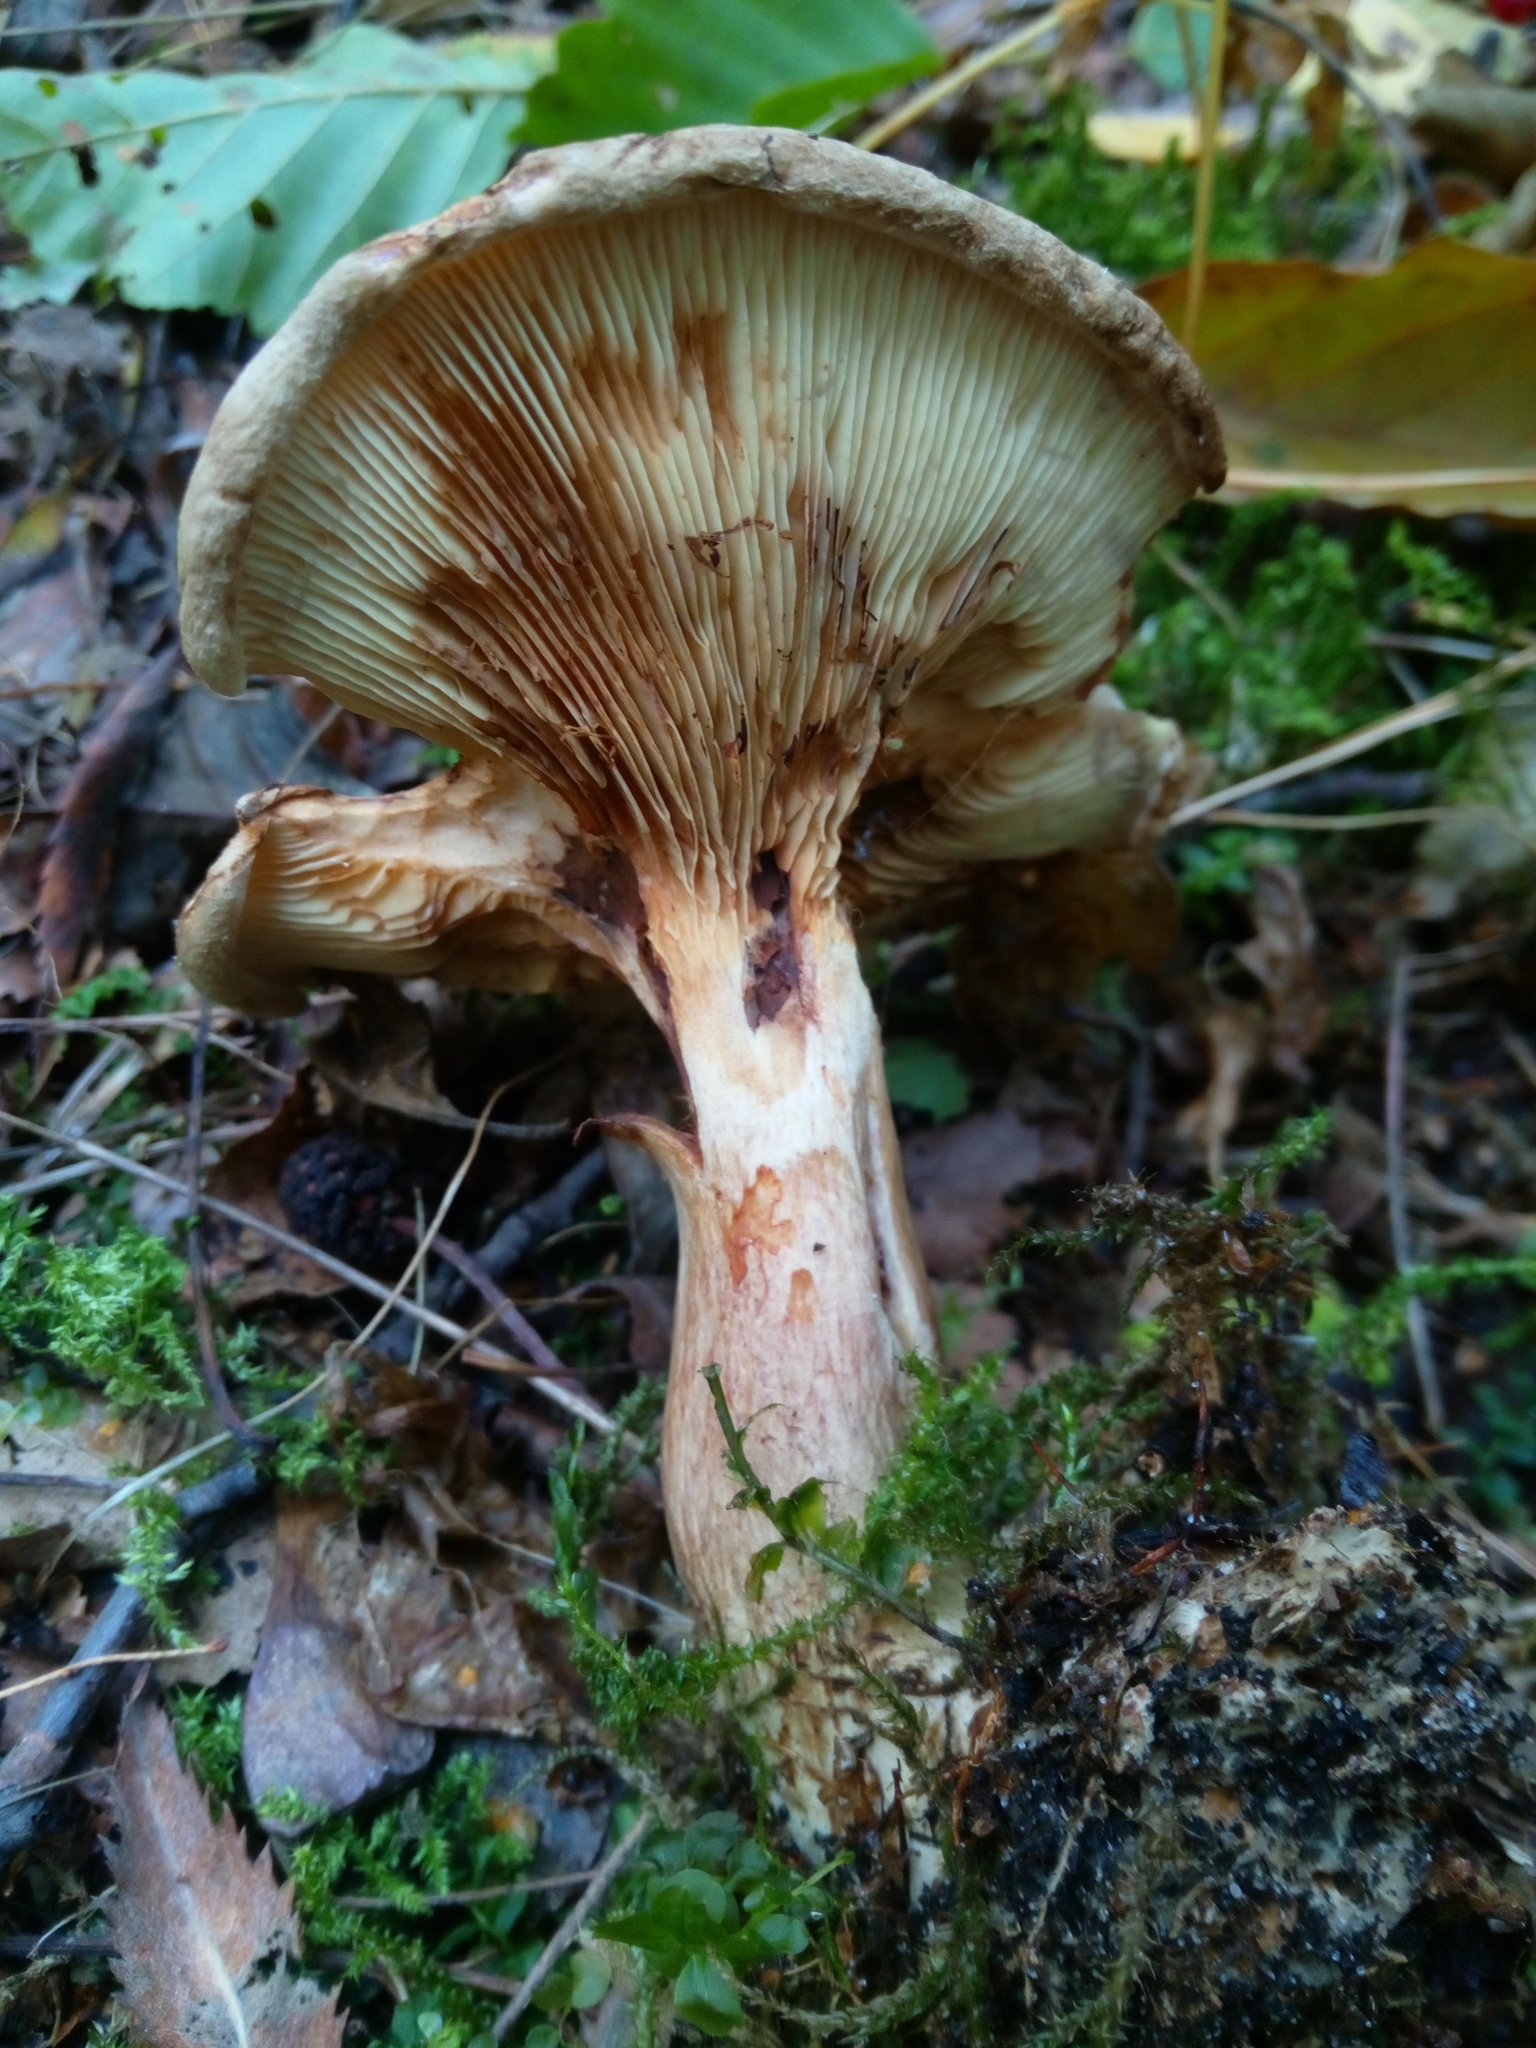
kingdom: Fungi
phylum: Basidiomycota
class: Agaricomycetes
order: Boletales
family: Paxillaceae
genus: Paxillus
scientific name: Paxillus involutus
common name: Brown roll rim
